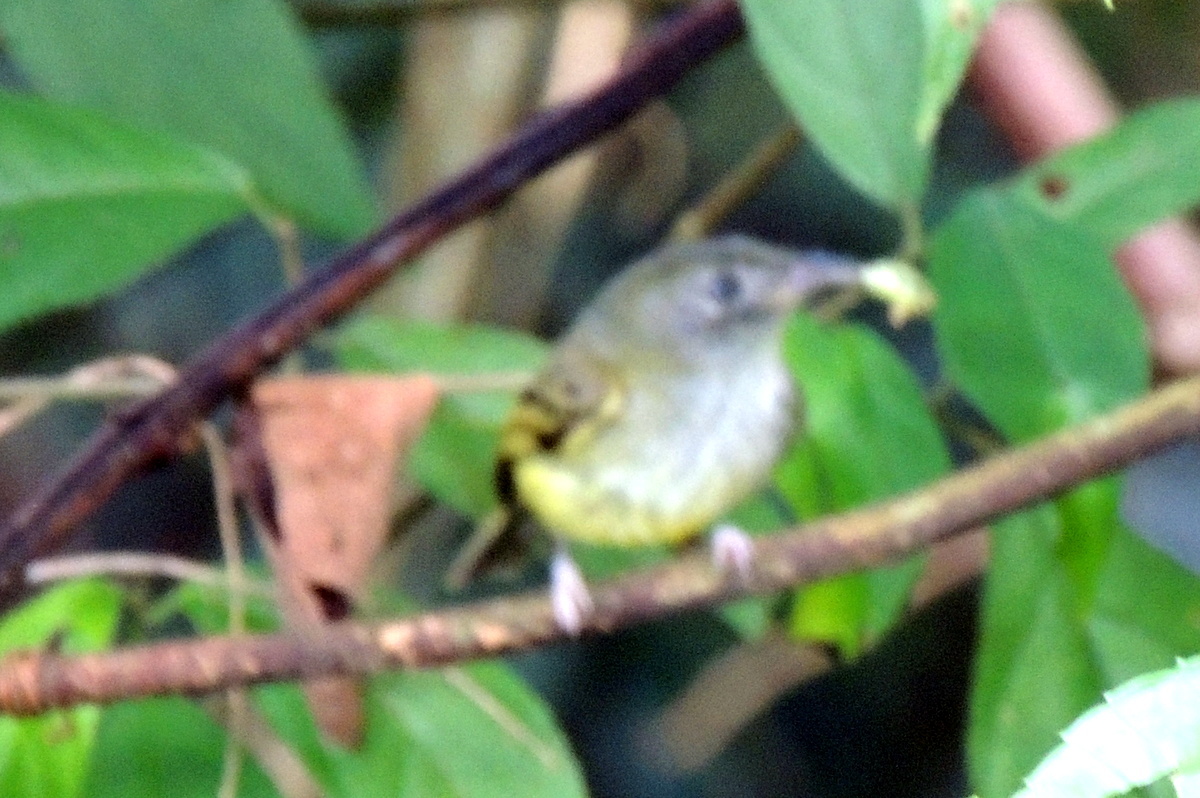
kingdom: Animalia
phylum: Chordata
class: Aves
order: Passeriformes
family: Tyrannidae
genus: Oncostoma
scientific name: Oncostoma cinereigulare
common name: Northern bentbill
